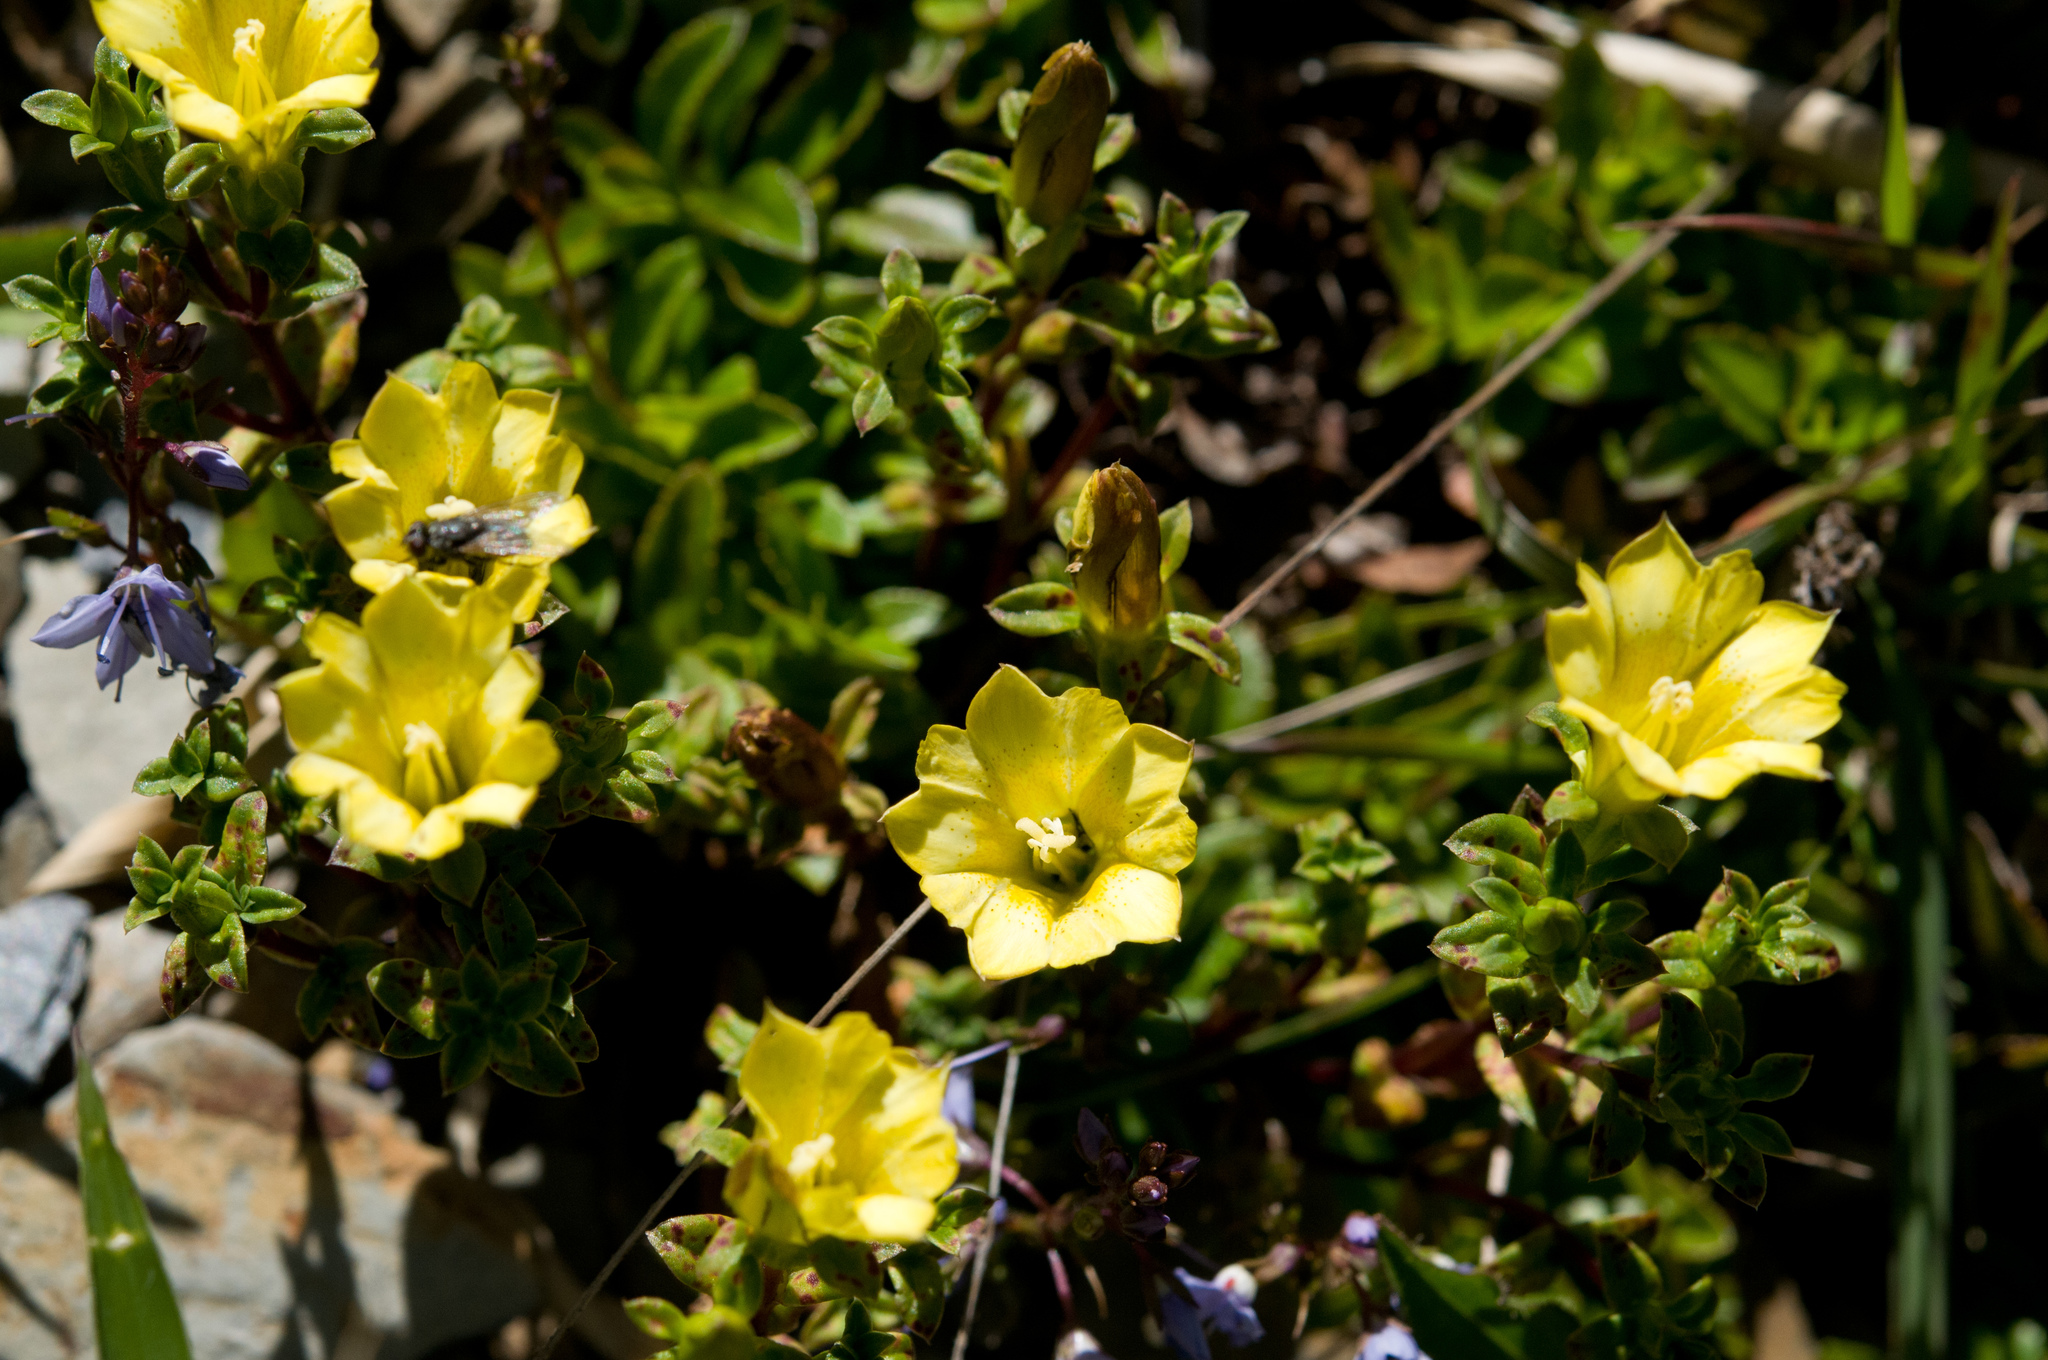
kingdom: Plantae
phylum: Tracheophyta
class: Magnoliopsida
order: Gentianales
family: Gentianaceae
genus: Gentiana
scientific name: Gentiana scabrida
